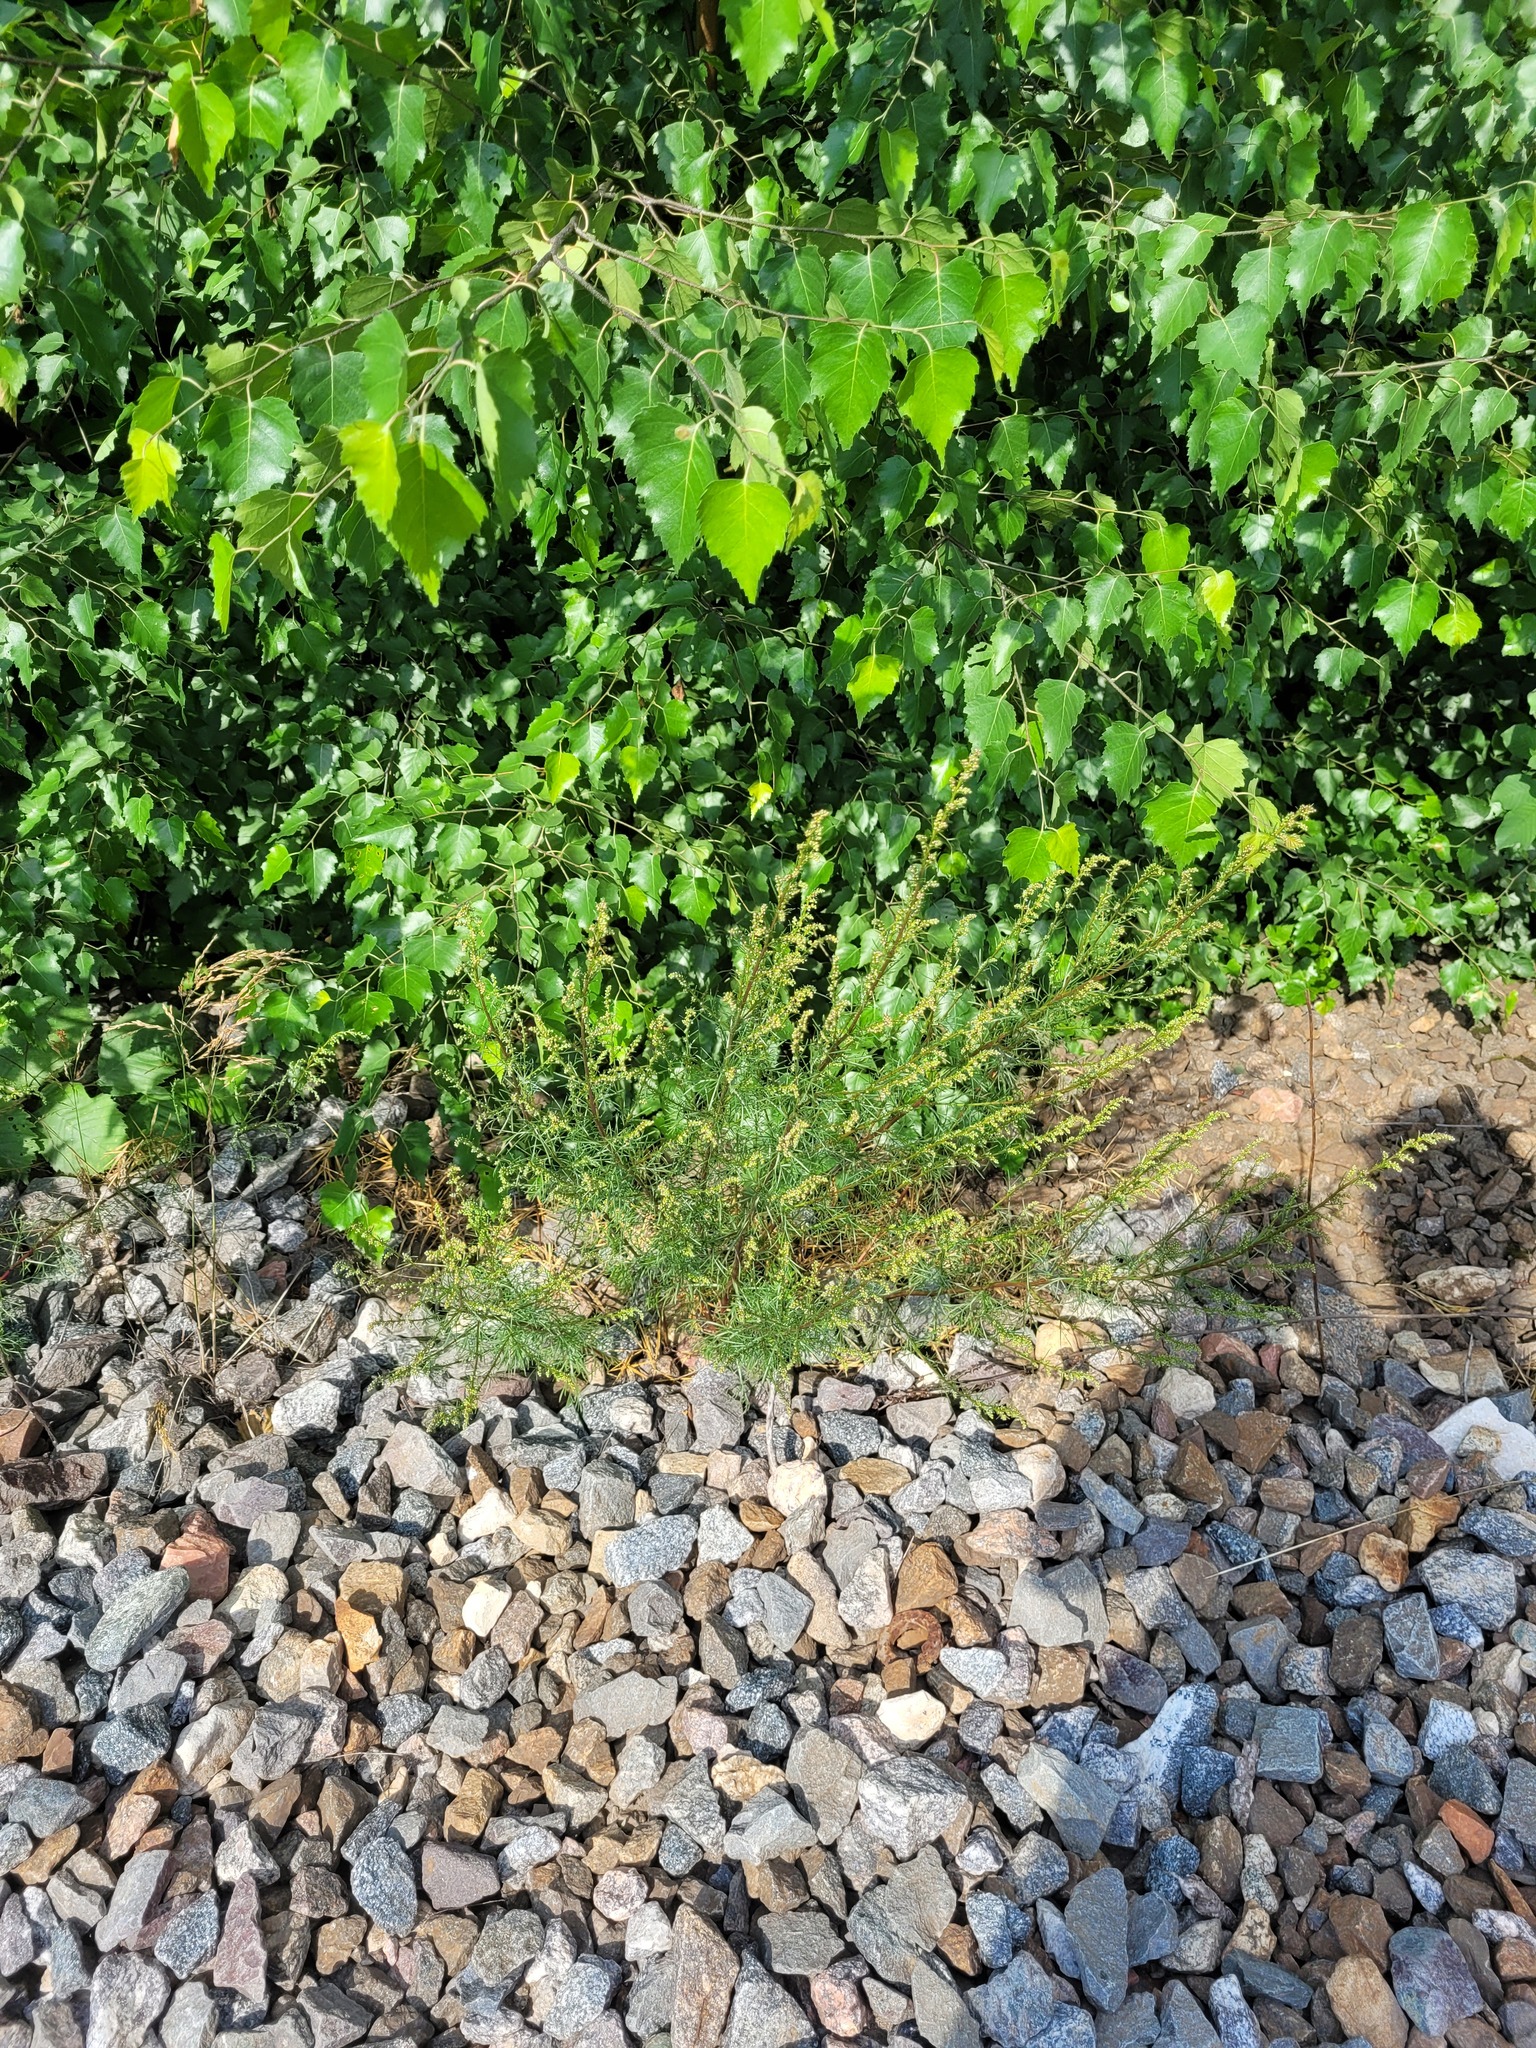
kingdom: Plantae
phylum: Tracheophyta
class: Magnoliopsida
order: Asterales
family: Asteraceae
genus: Artemisia
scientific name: Artemisia campestris
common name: Field wormwood
